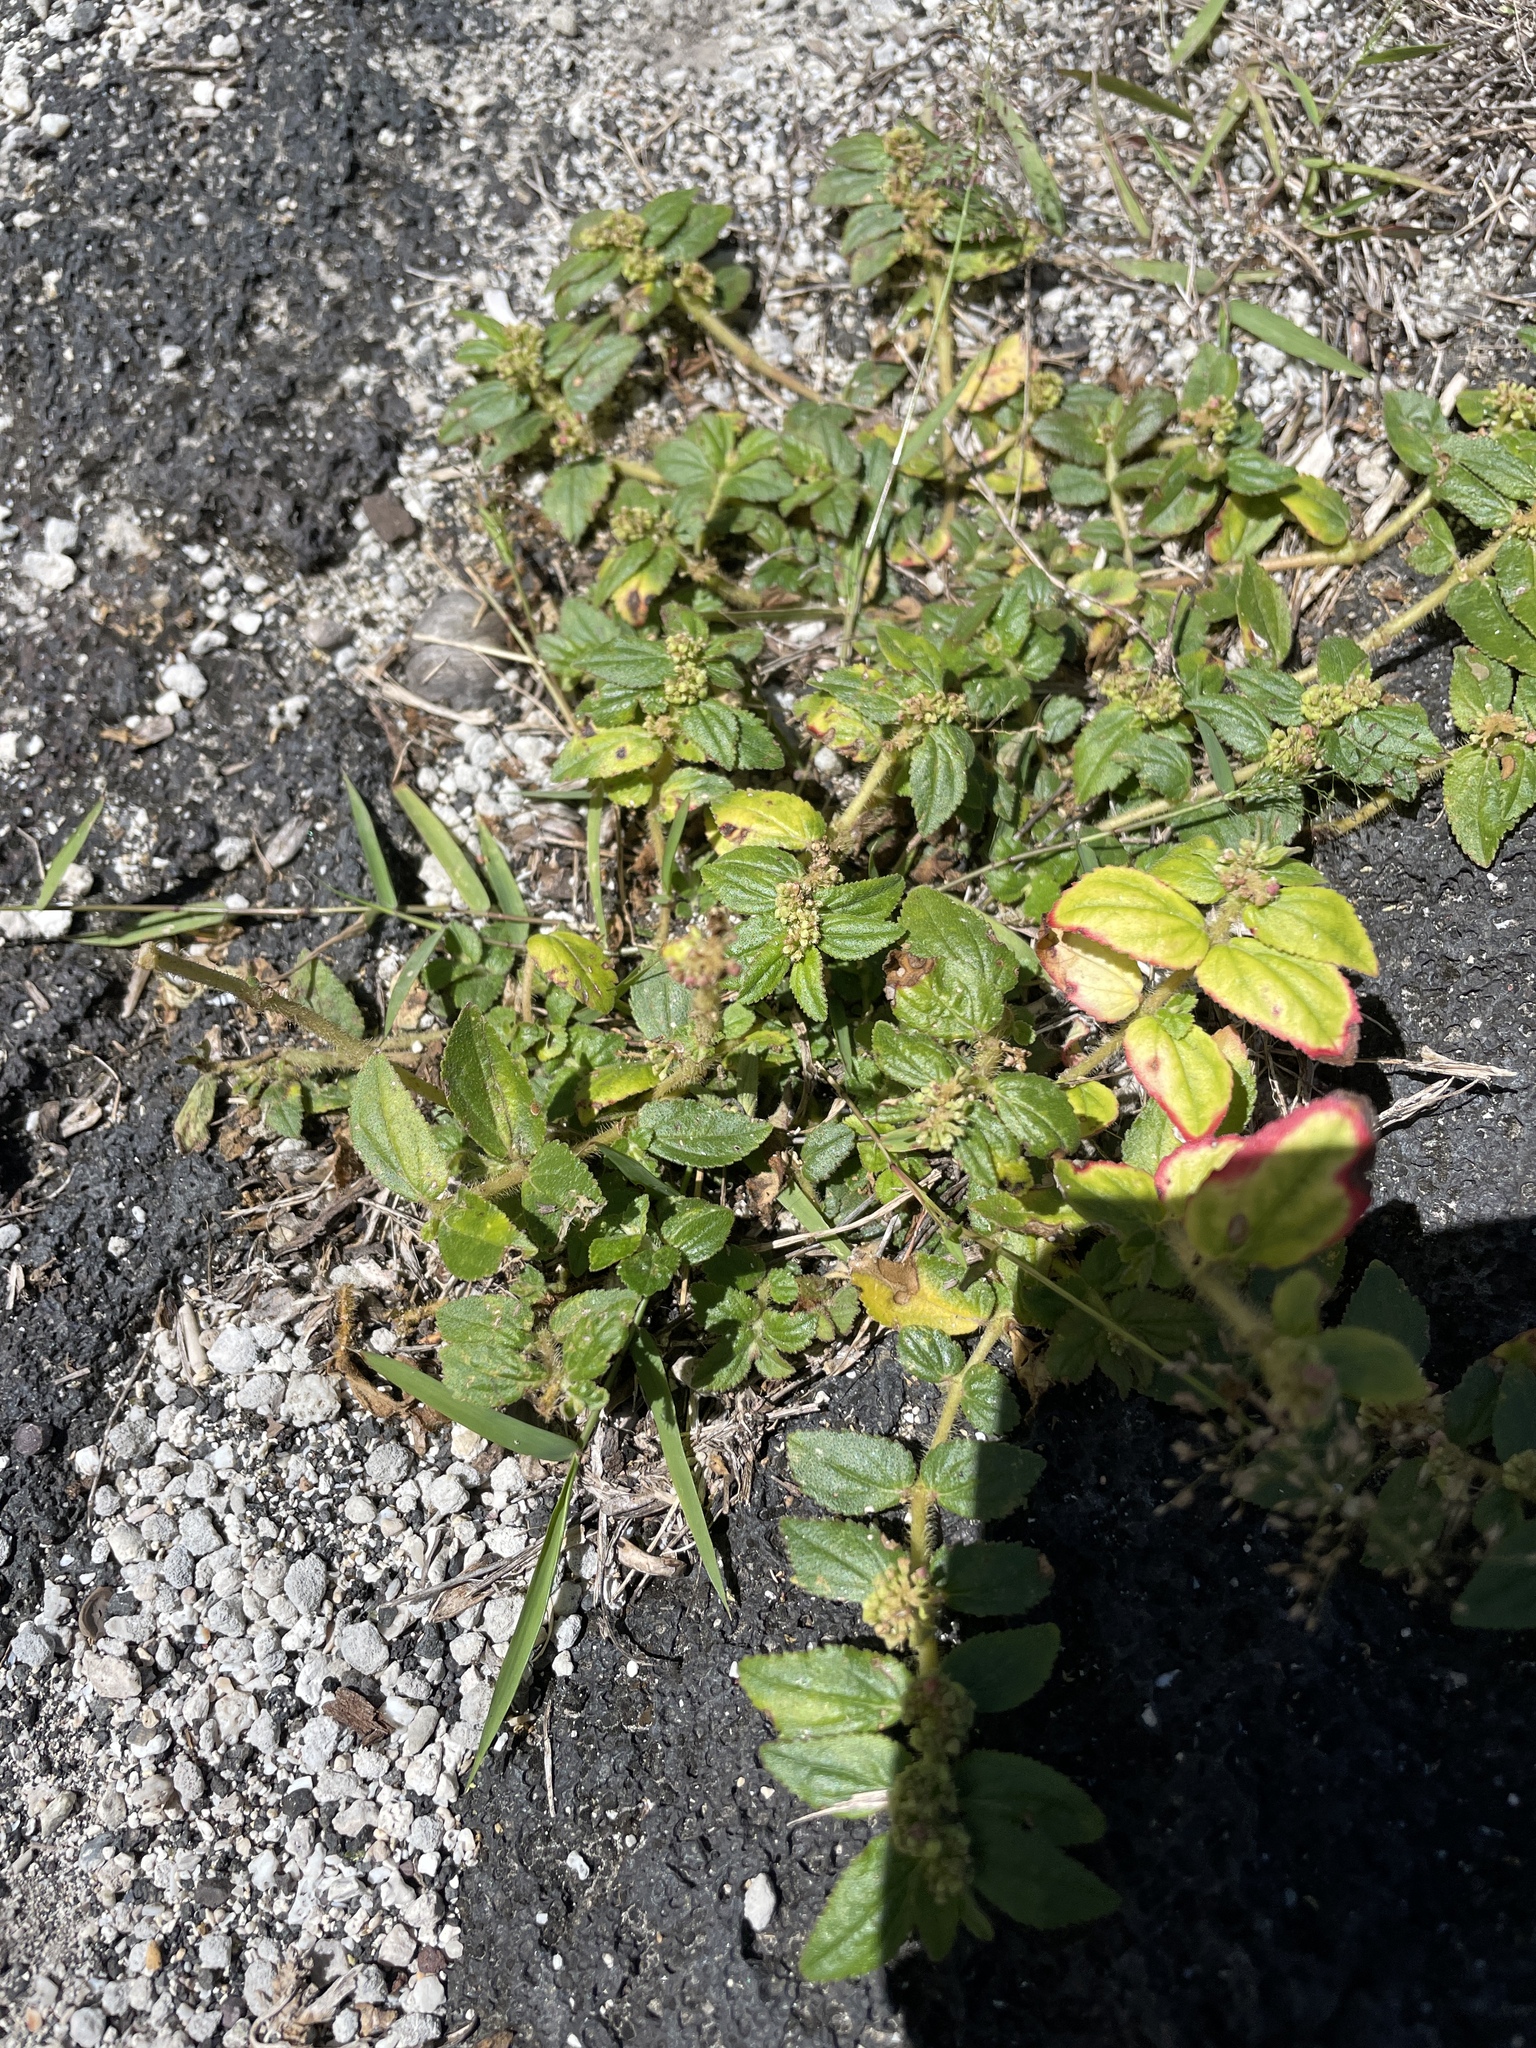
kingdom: Plantae
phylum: Tracheophyta
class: Magnoliopsida
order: Malpighiales
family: Euphorbiaceae
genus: Euphorbia
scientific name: Euphorbia hirta
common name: Pillpod sandmat
